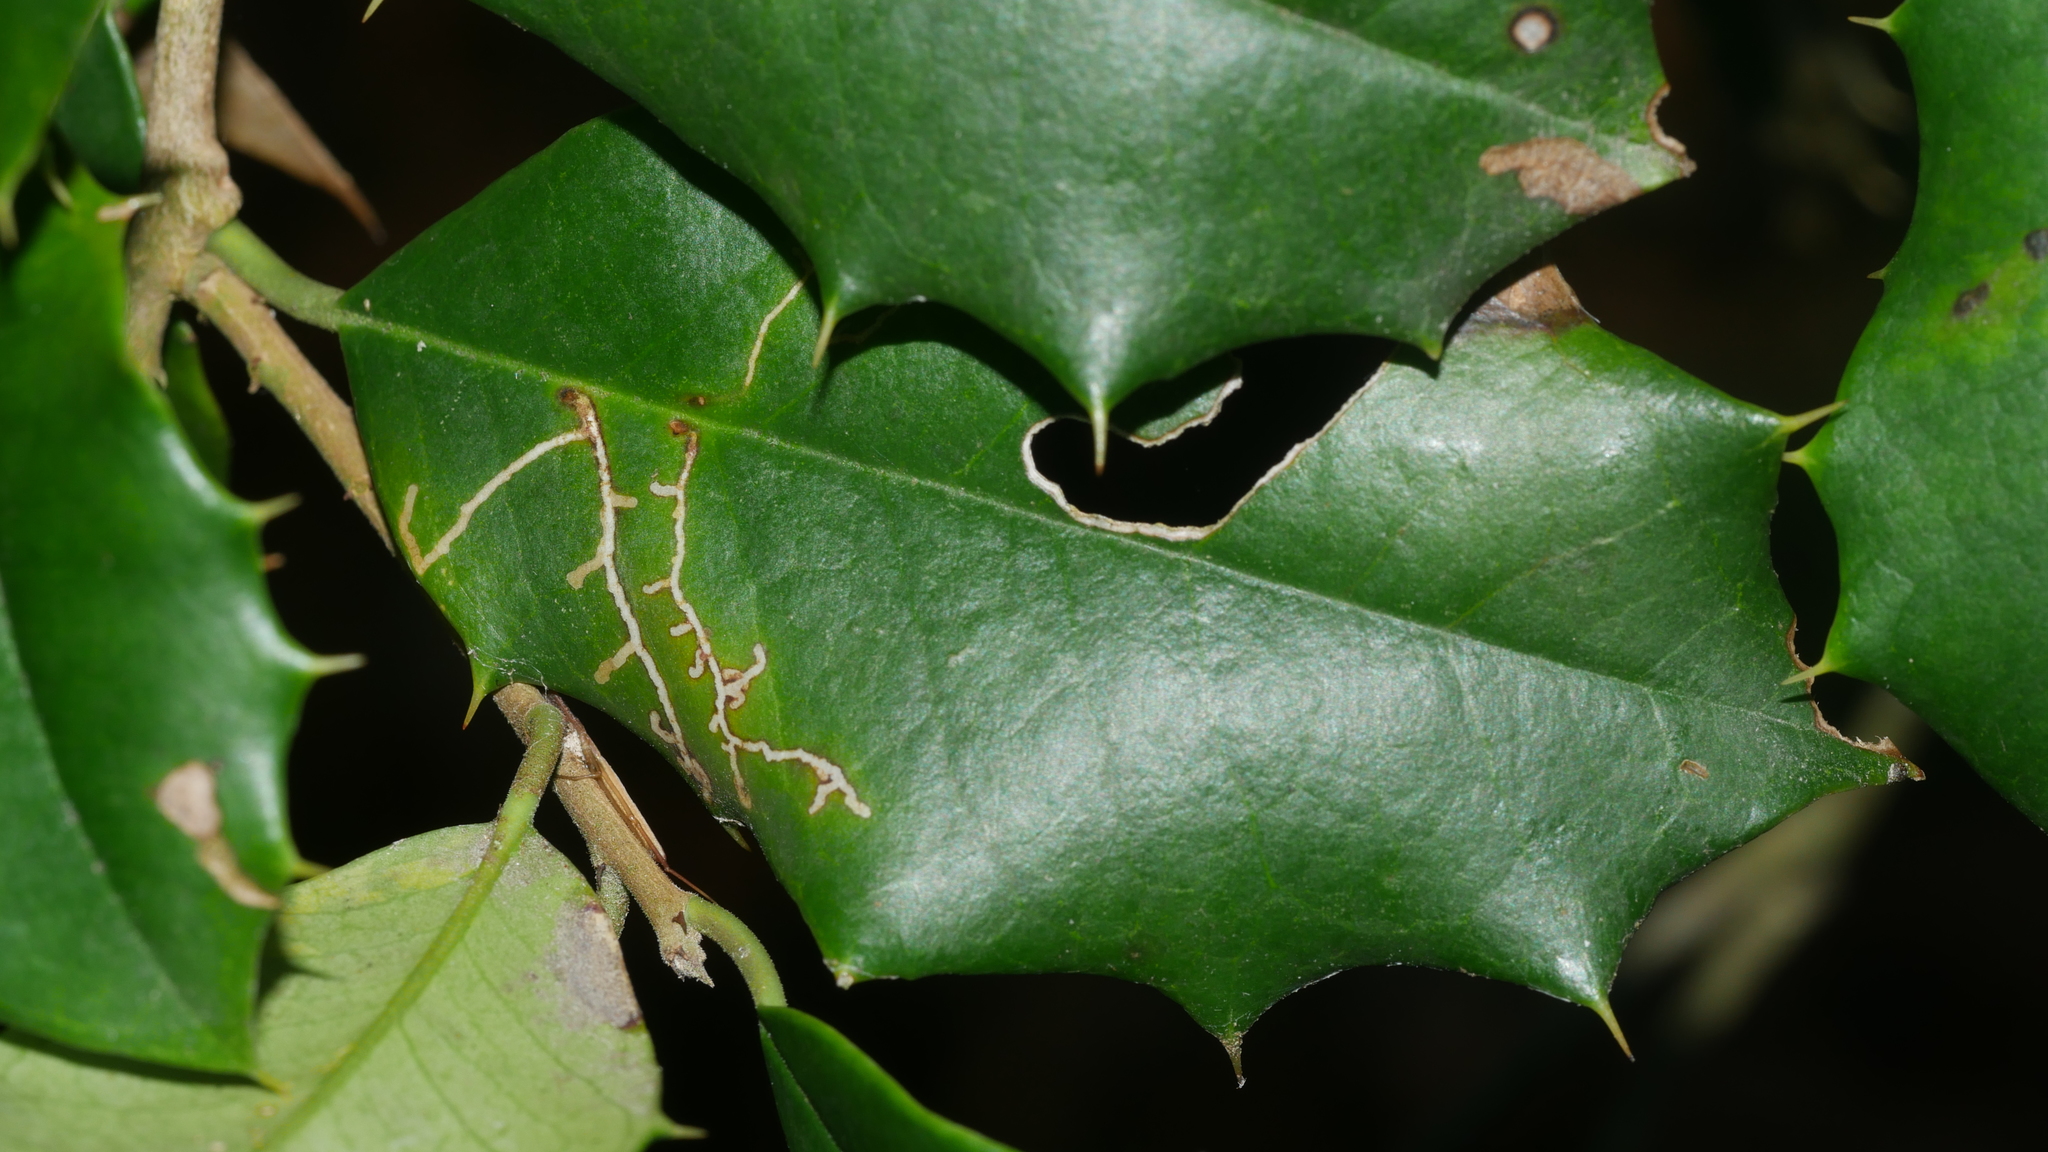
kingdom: Animalia
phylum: Arthropoda
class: Insecta
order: Lepidoptera
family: Tortricidae
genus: Rhopobota
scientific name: Rhopobota
